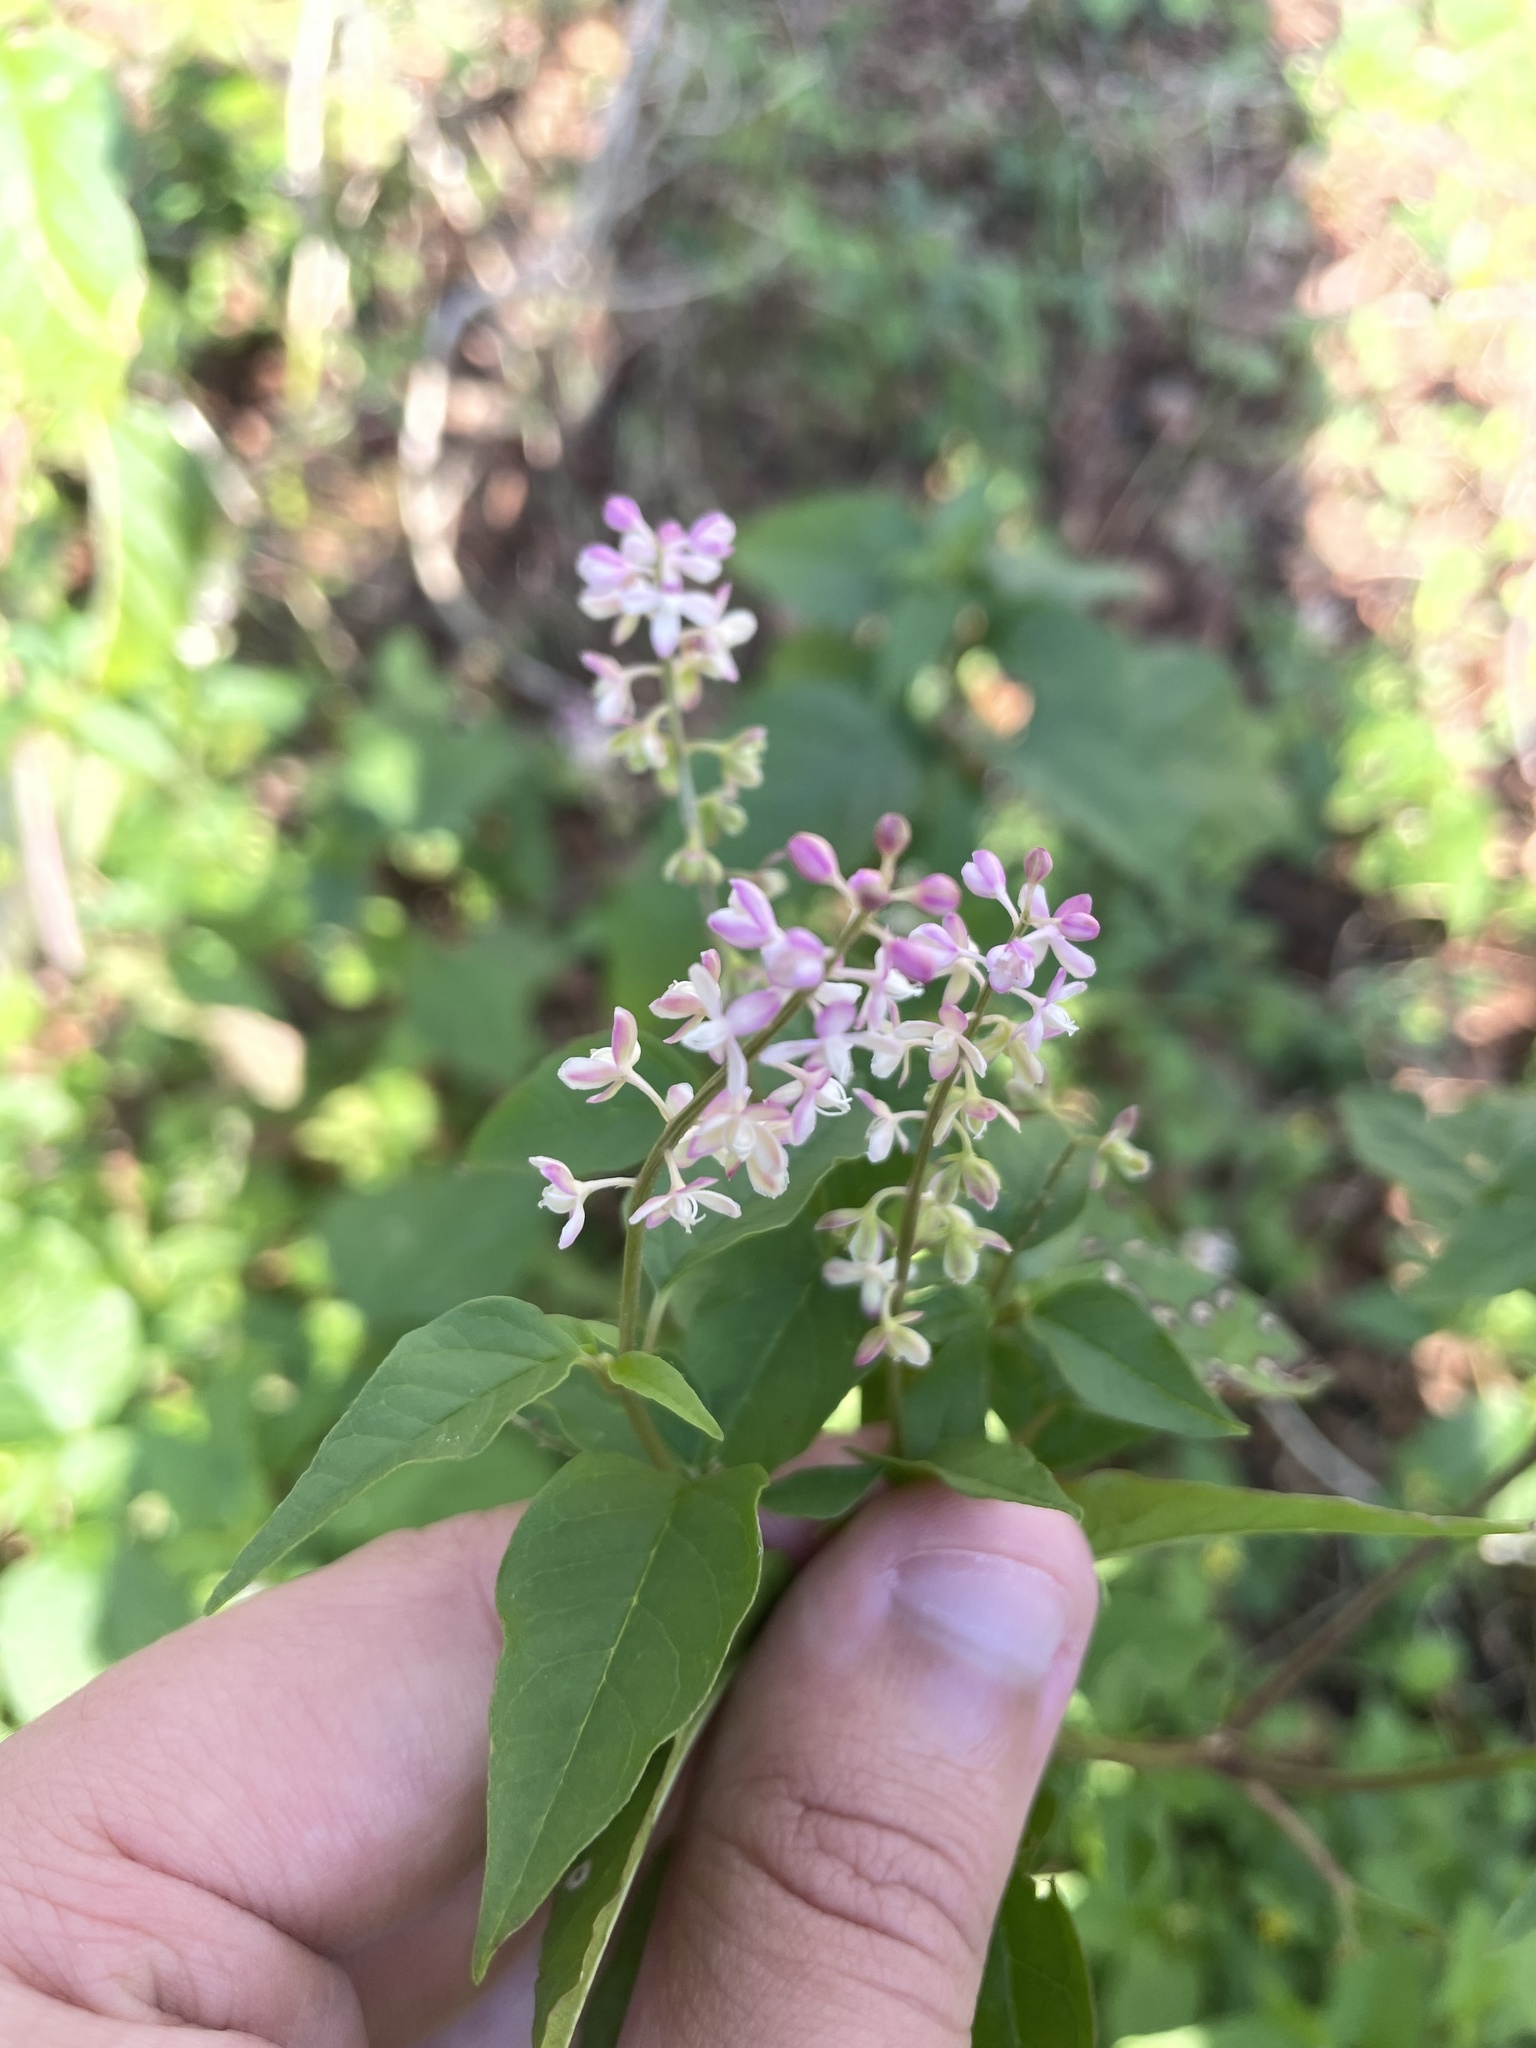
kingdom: Plantae
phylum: Tracheophyta
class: Magnoliopsida
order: Caryophyllales
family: Phytolaccaceae
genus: Rivina
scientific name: Rivina humilis
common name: Rougeplant
